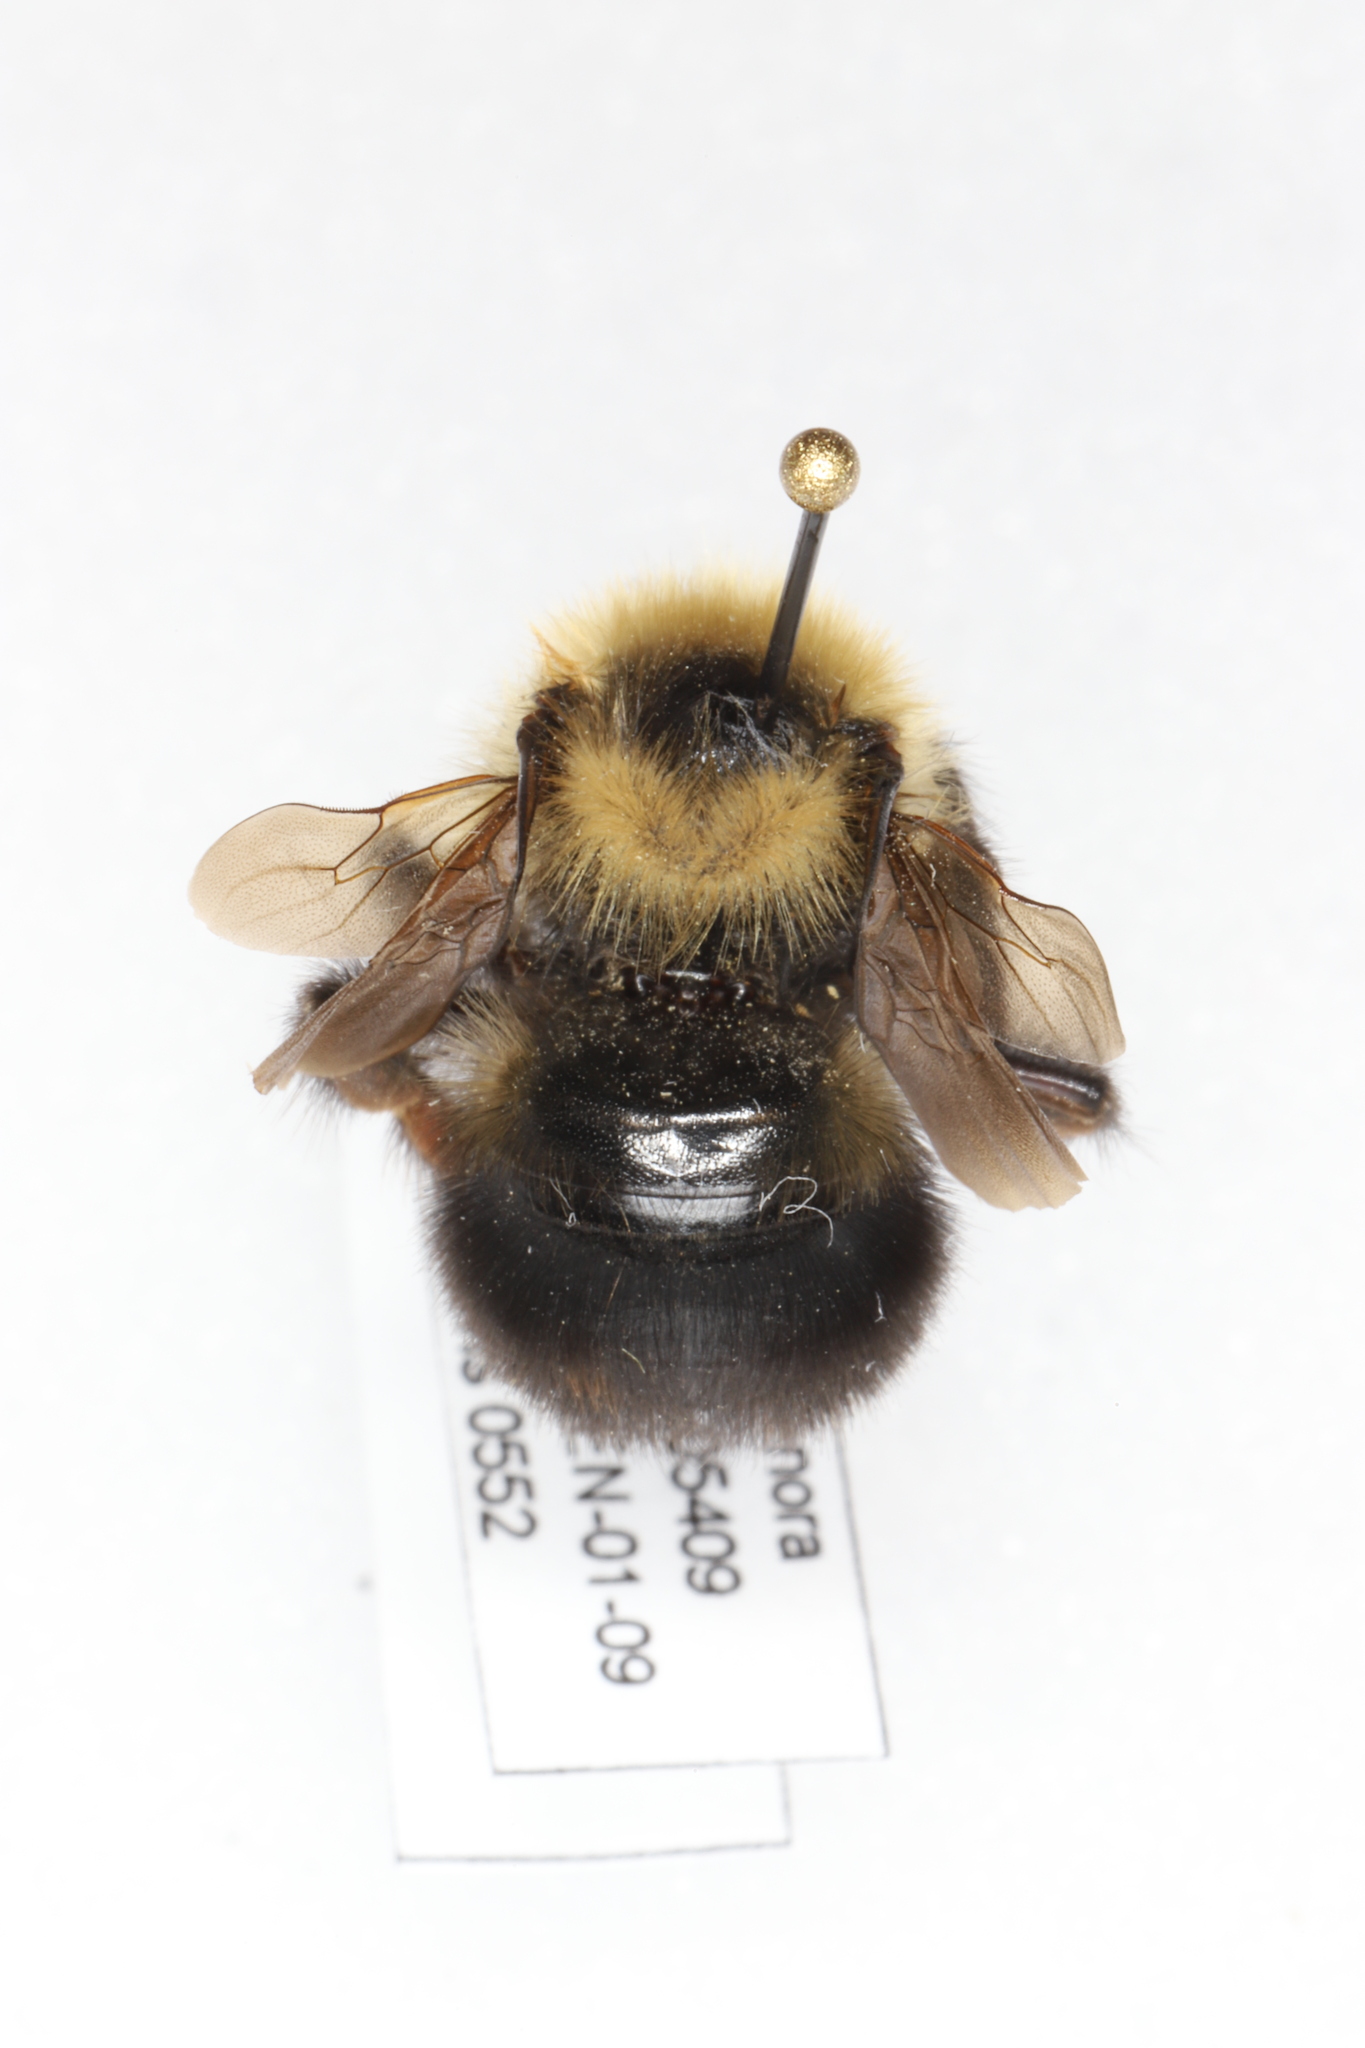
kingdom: Animalia
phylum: Arthropoda
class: Insecta
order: Hymenoptera
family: Apidae
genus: Bombus
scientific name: Bombus flavidus
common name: Fernald cuckoo bumble bee
